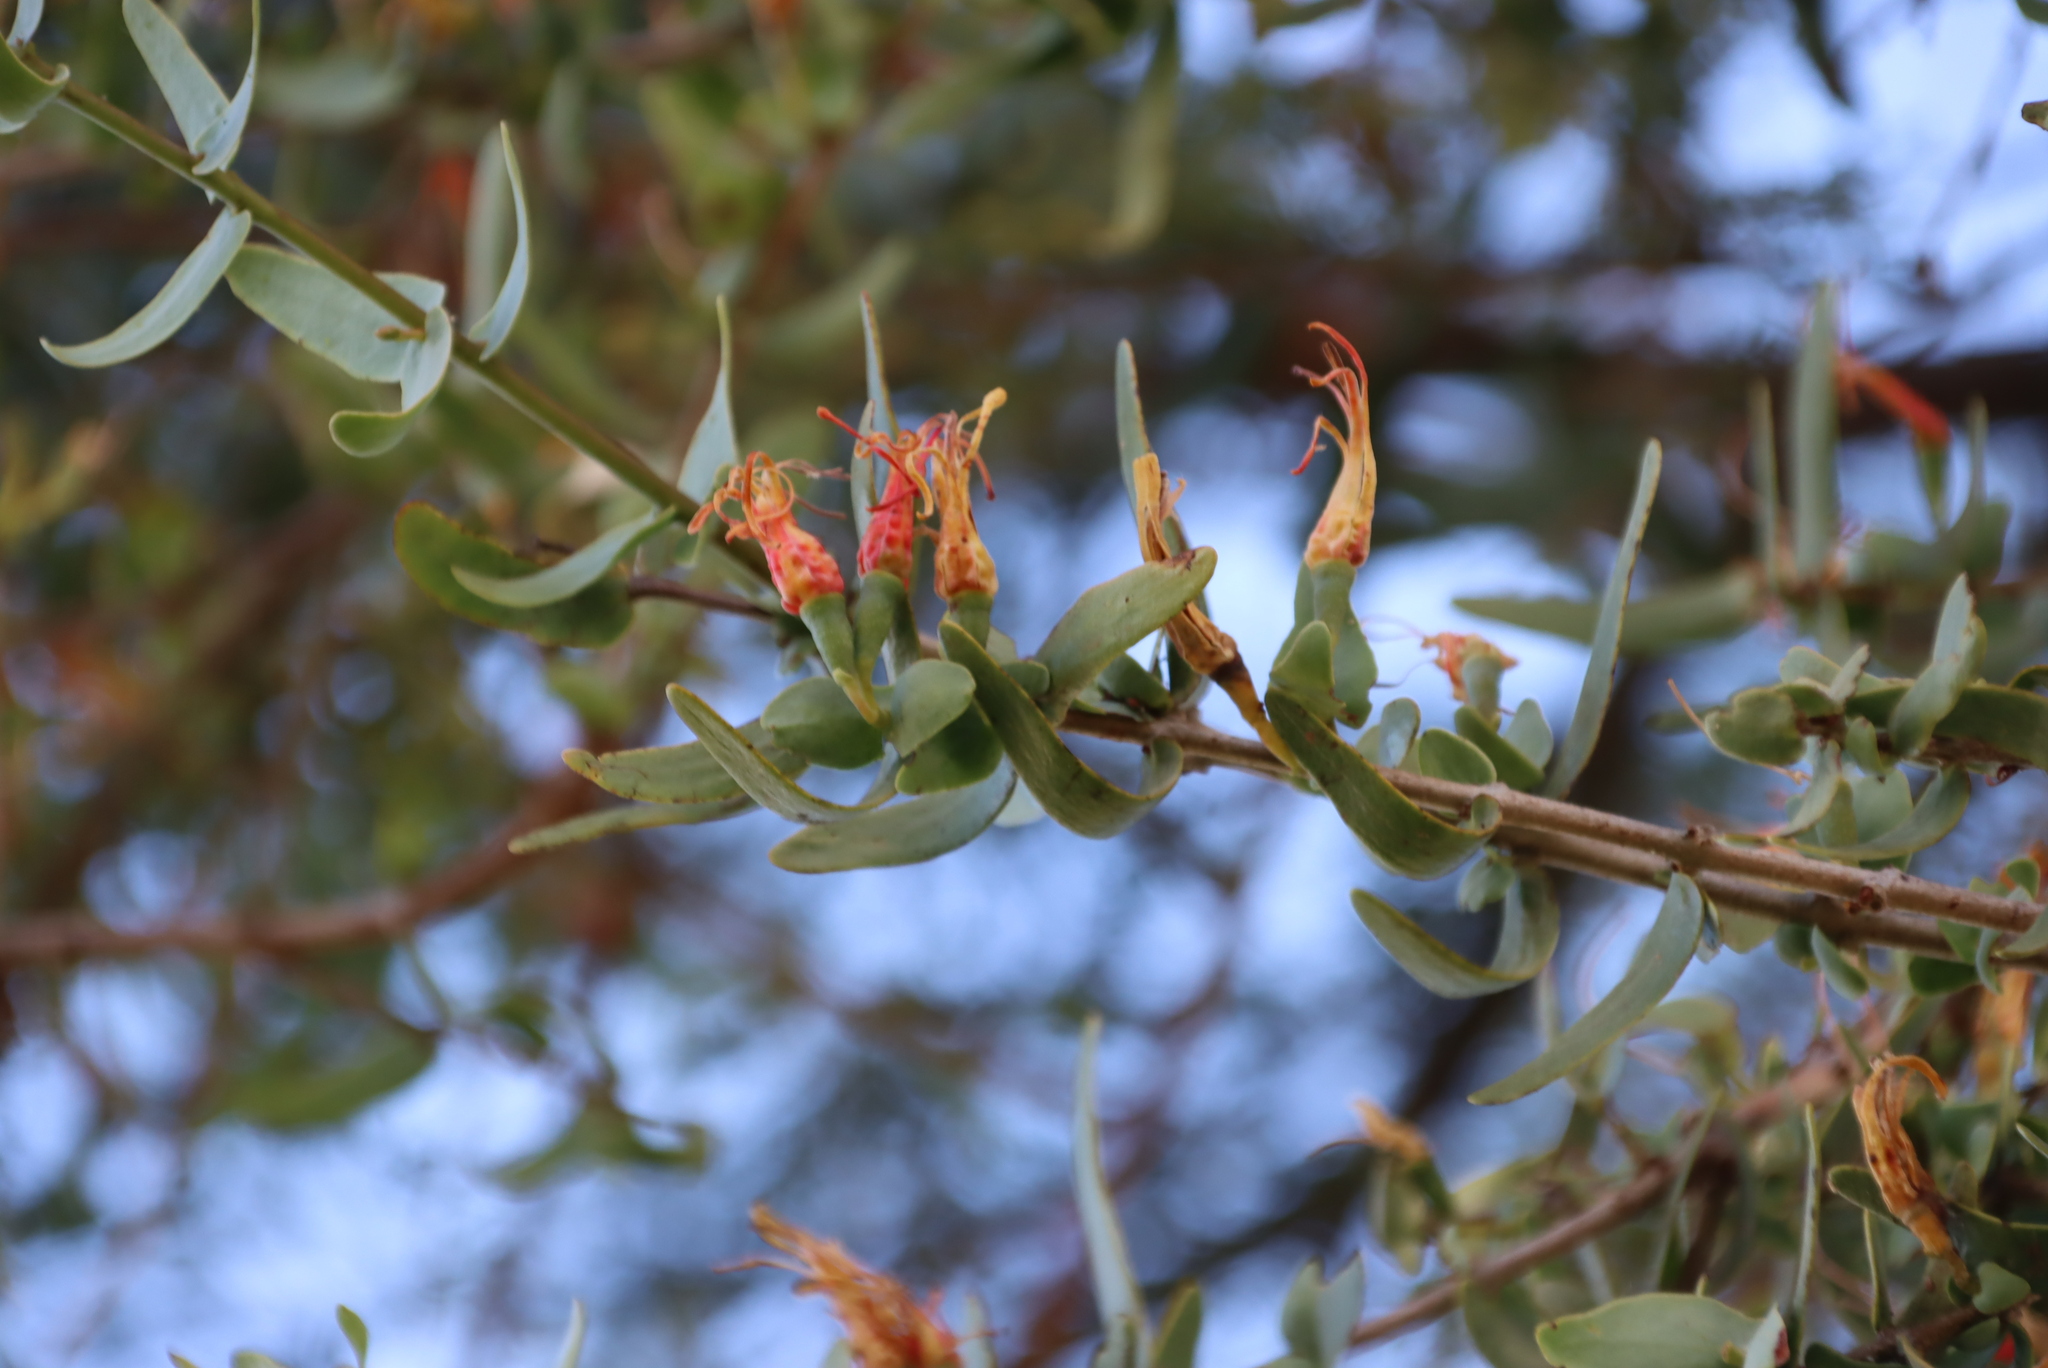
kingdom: Plantae
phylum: Tracheophyta
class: Magnoliopsida
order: Santalales
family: Loranthaceae
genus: Plicosepalus
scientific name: Plicosepalus undulatus
